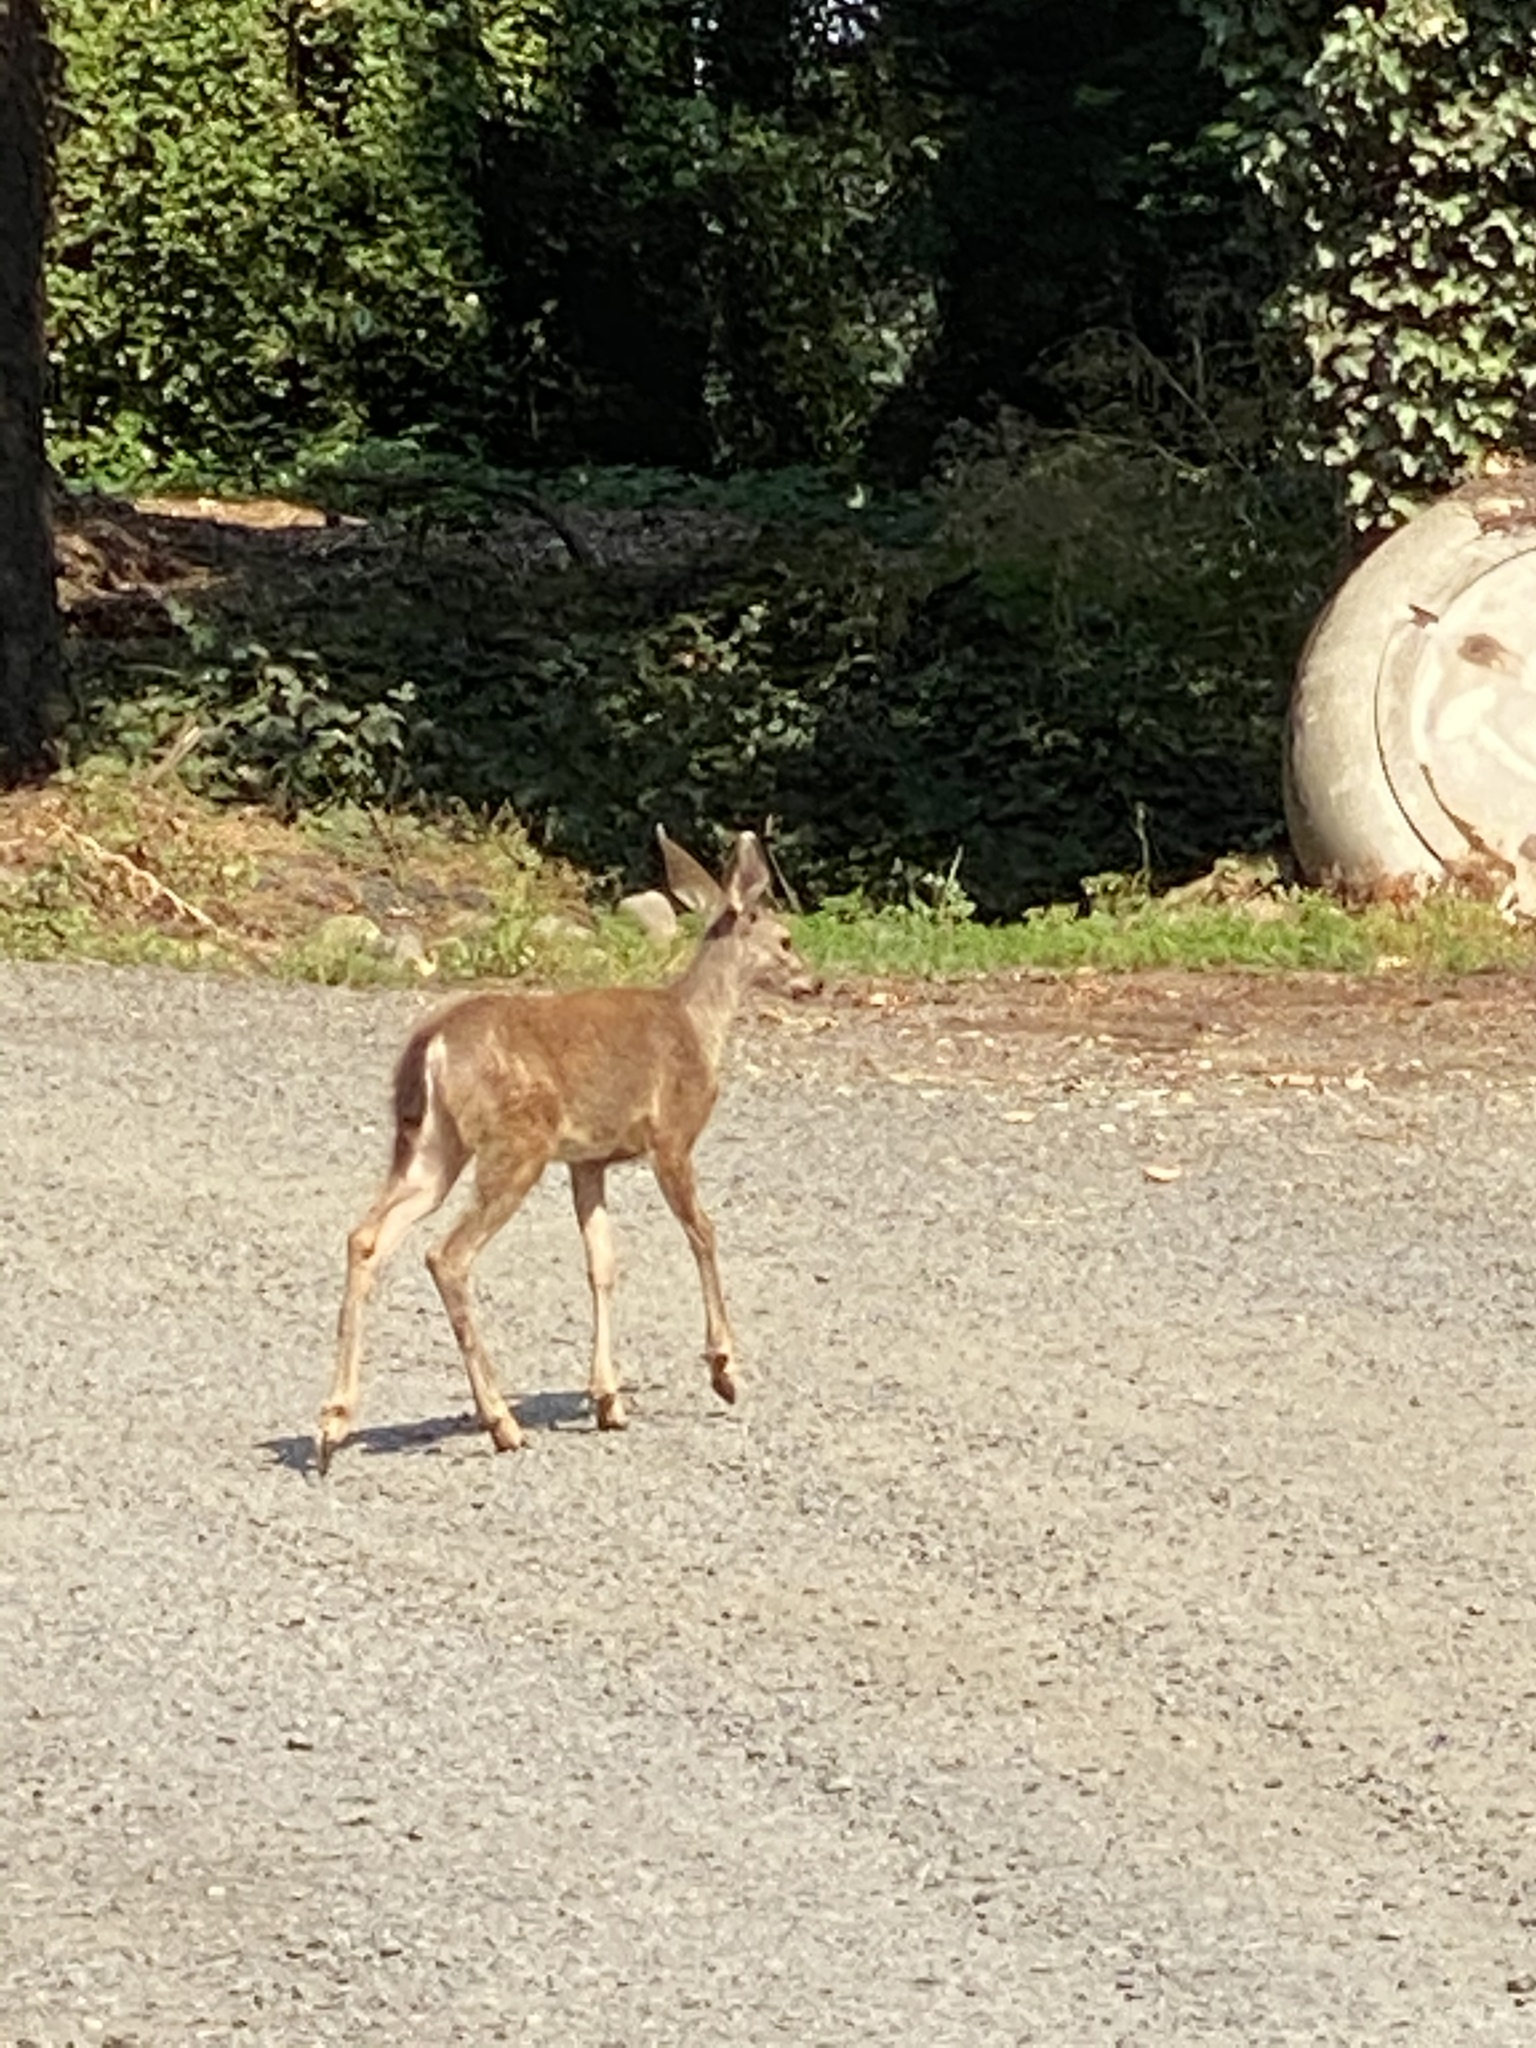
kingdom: Animalia
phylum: Chordata
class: Mammalia
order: Artiodactyla
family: Cervidae
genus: Odocoileus
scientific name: Odocoileus hemionus
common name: Mule deer
